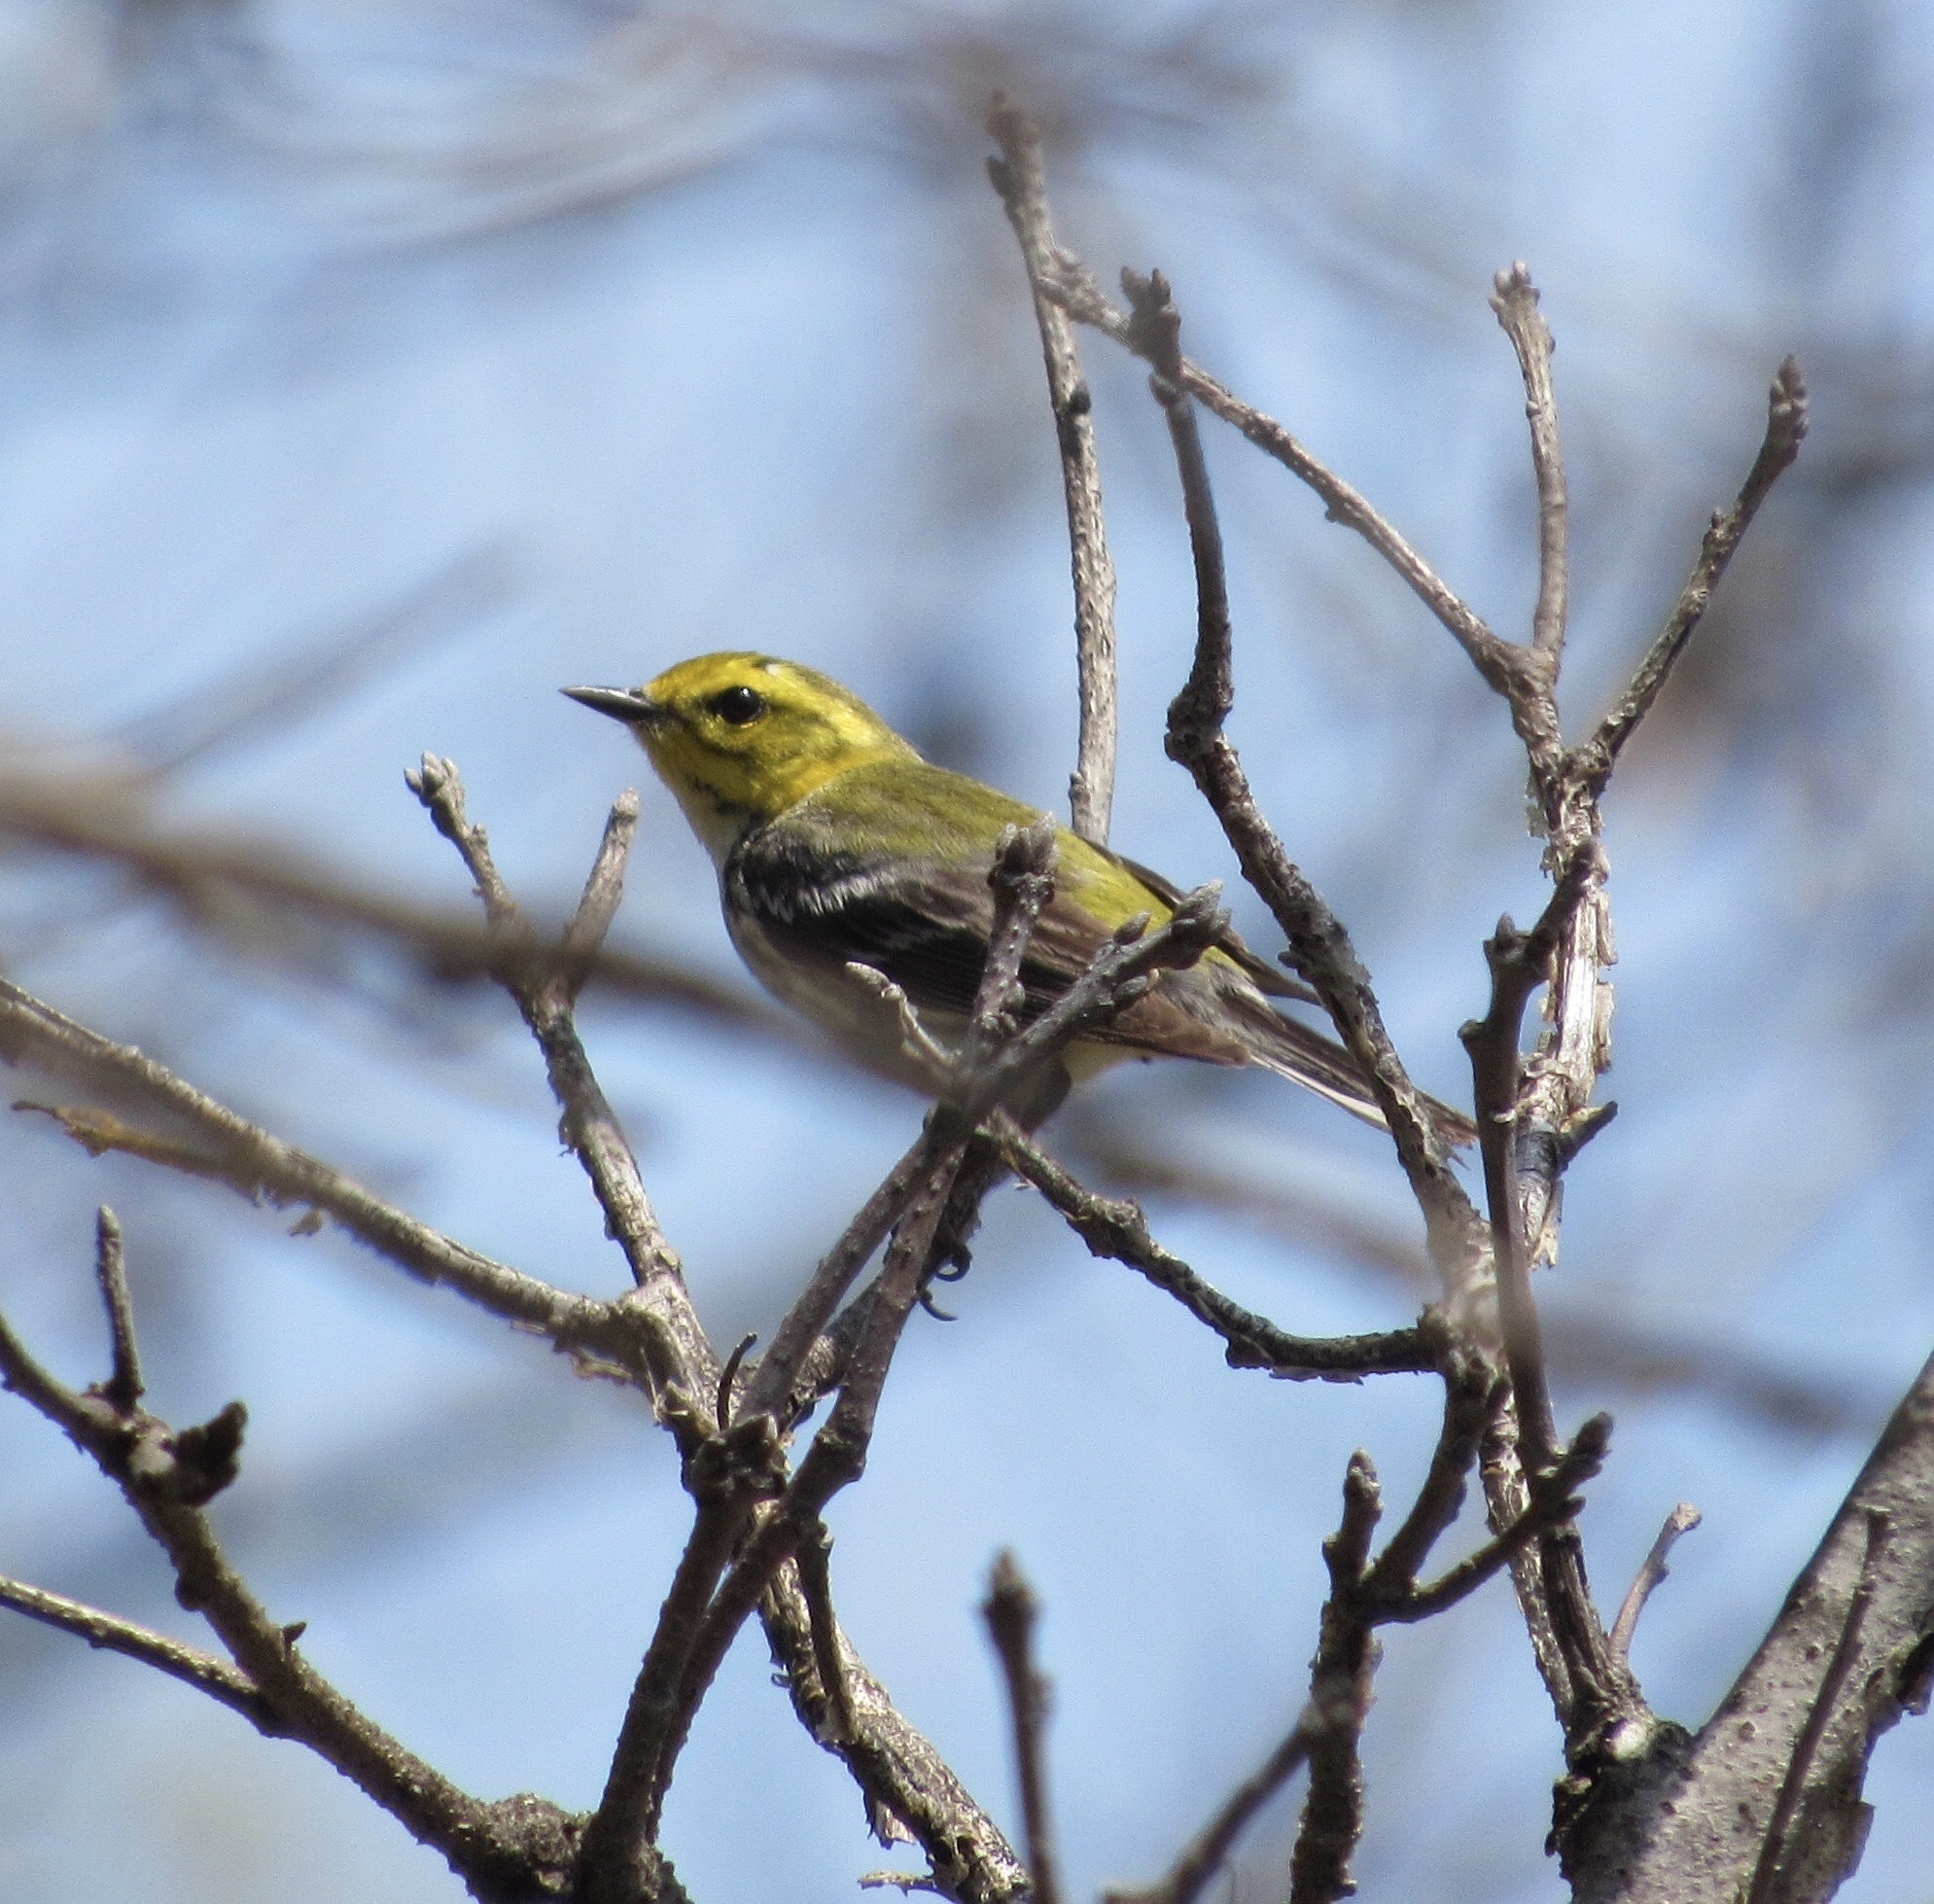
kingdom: Animalia
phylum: Chordata
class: Aves
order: Passeriformes
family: Parulidae
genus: Setophaga
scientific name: Setophaga virens
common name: Black-throated green warbler
